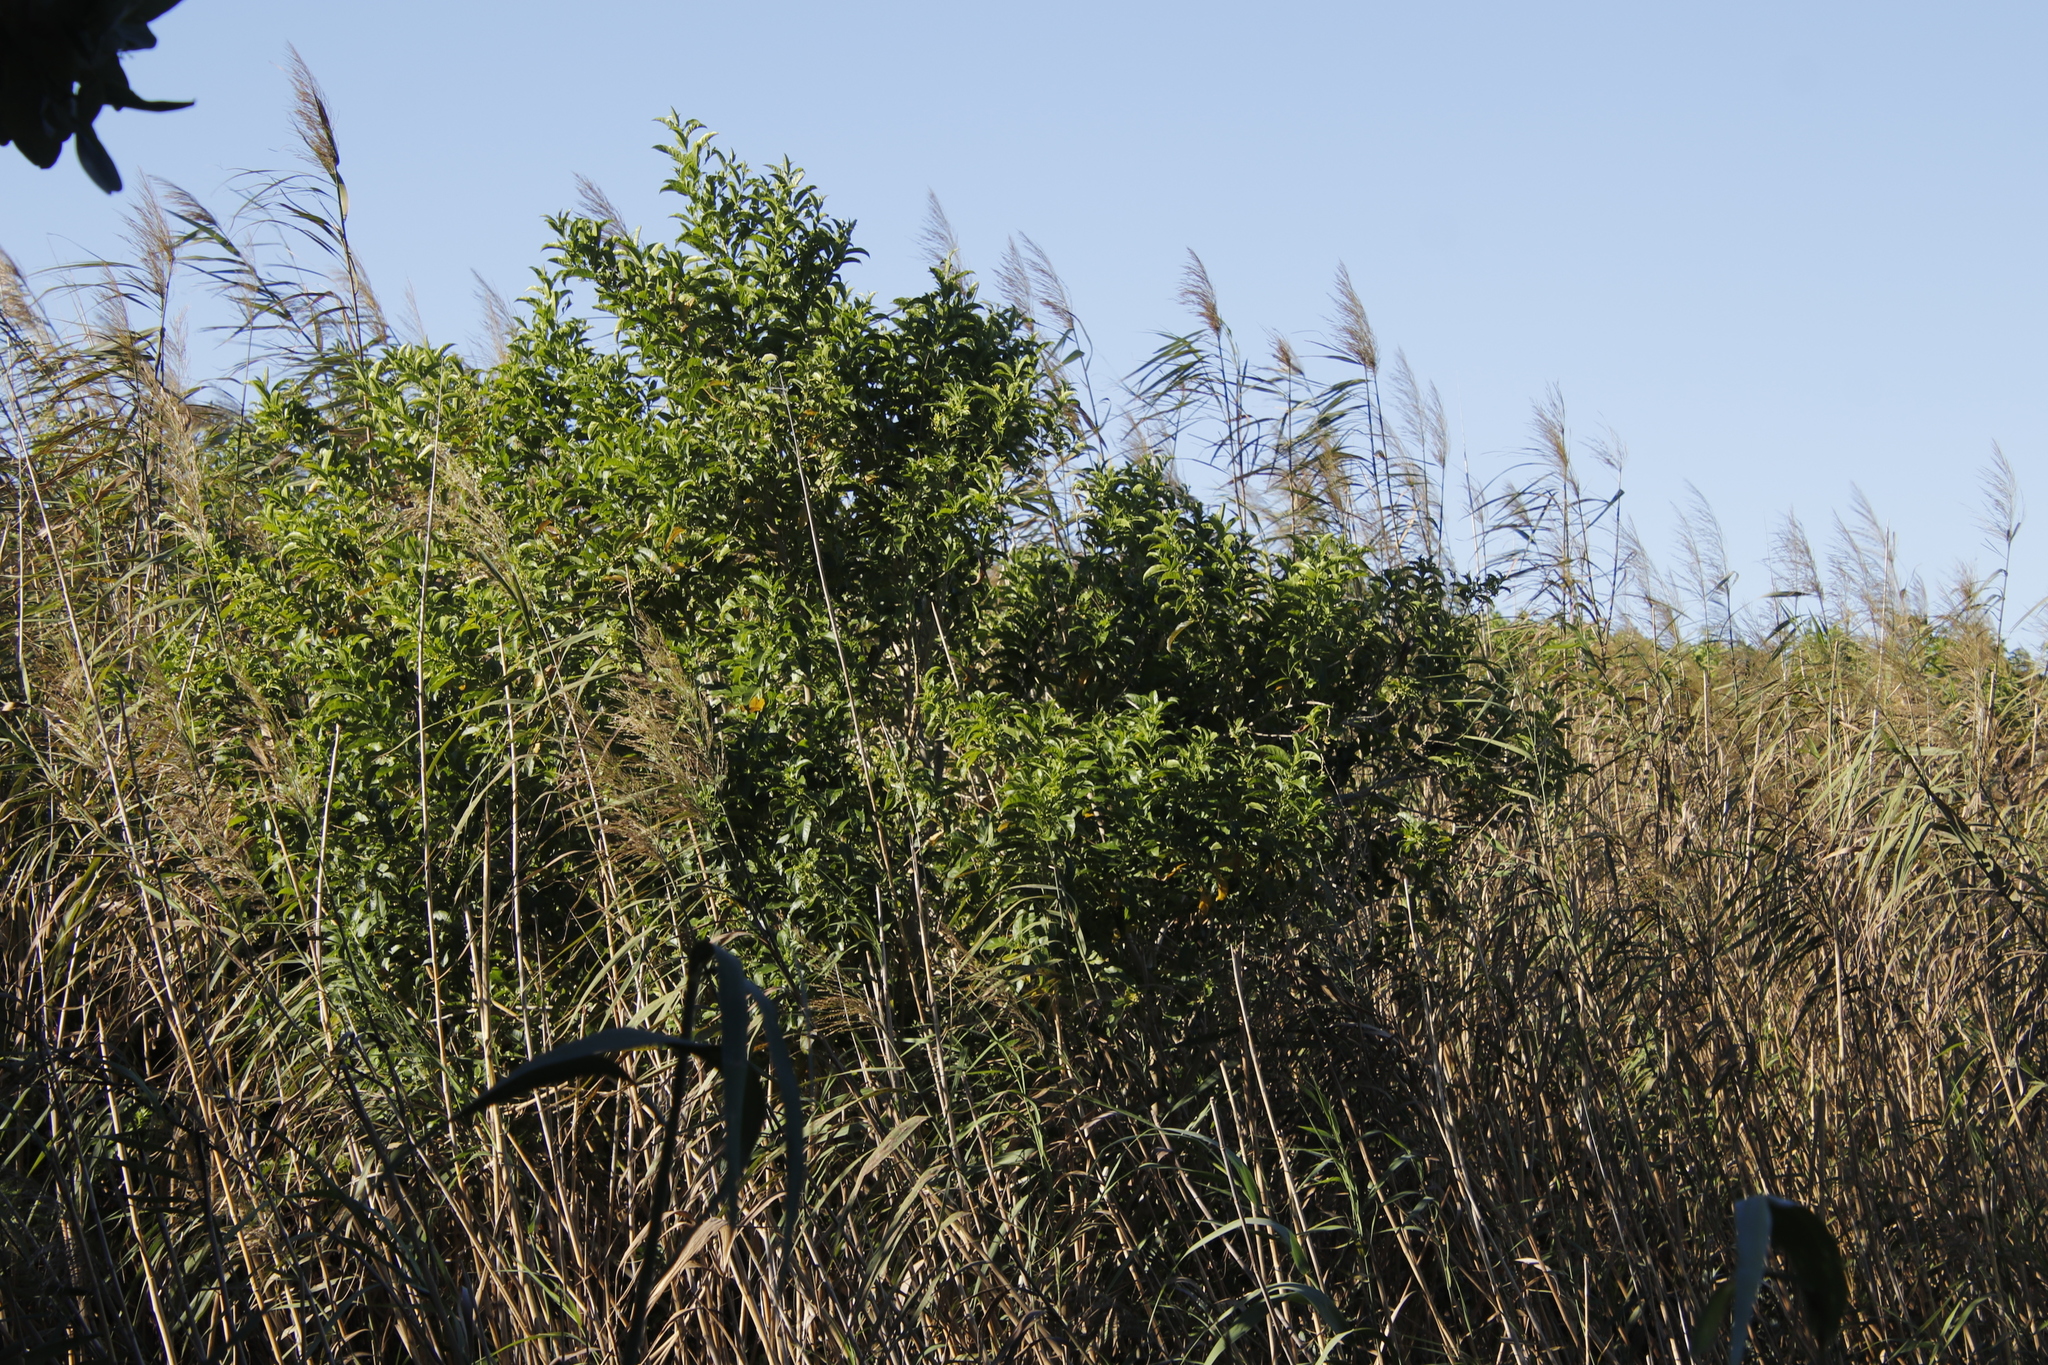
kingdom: Plantae
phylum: Tracheophyta
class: Magnoliopsida
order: Solanales
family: Solanaceae
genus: Cestrum
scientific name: Cestrum laevigatum
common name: Inkberry
